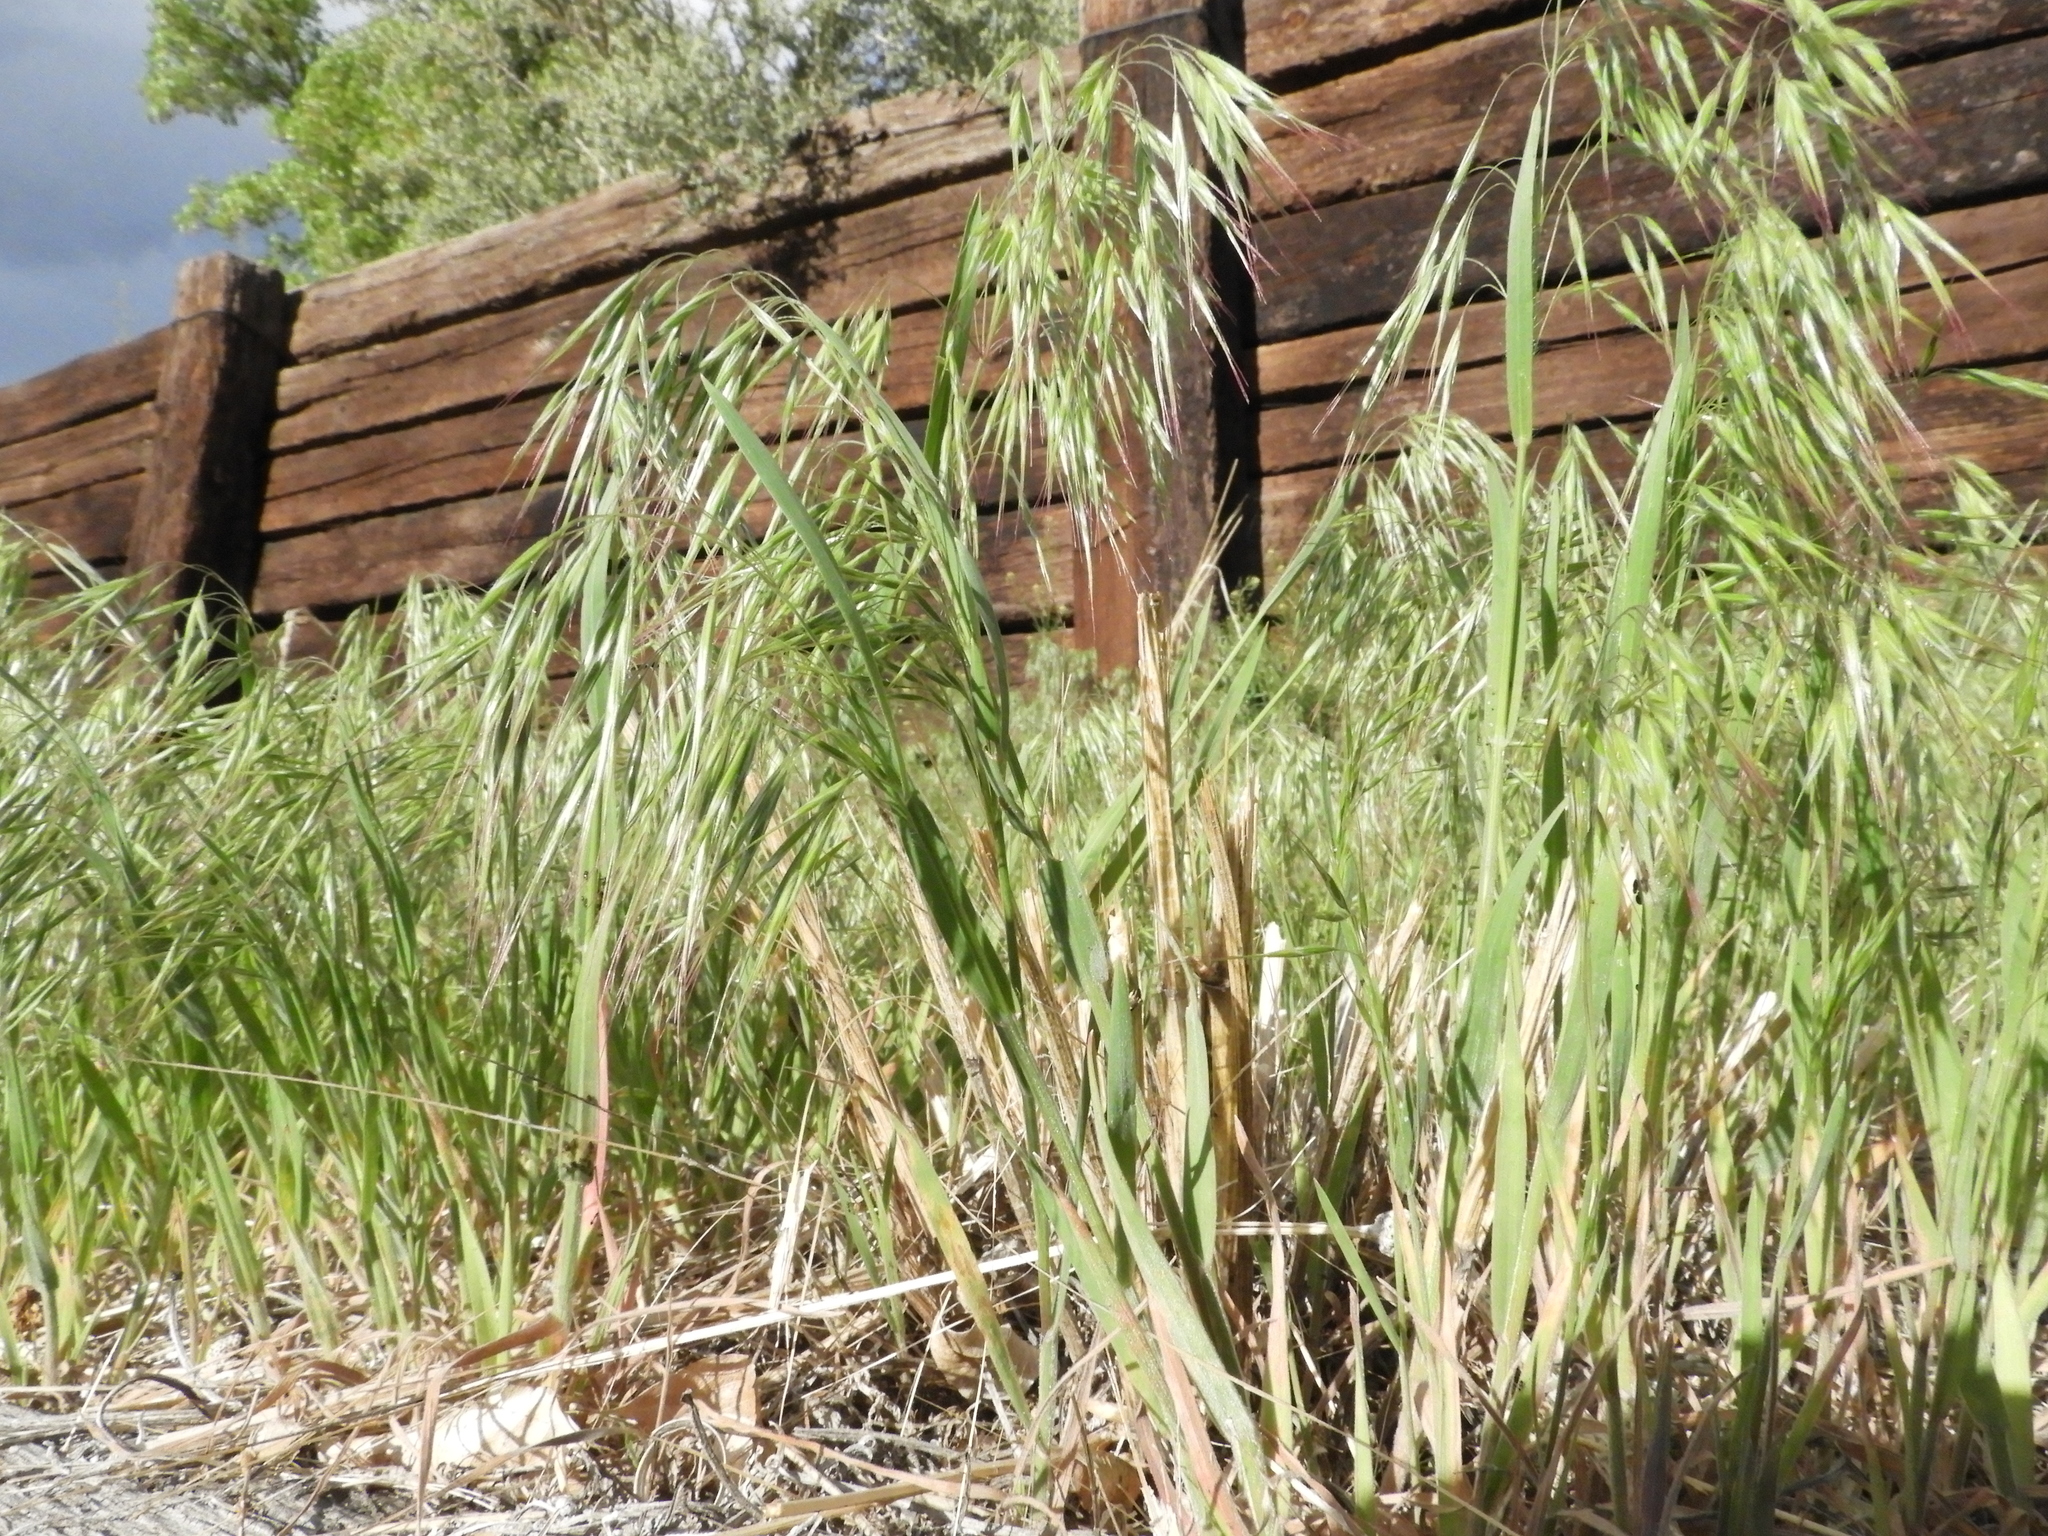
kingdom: Plantae
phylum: Tracheophyta
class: Liliopsida
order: Poales
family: Poaceae
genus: Bromus
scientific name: Bromus tectorum
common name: Cheatgrass
